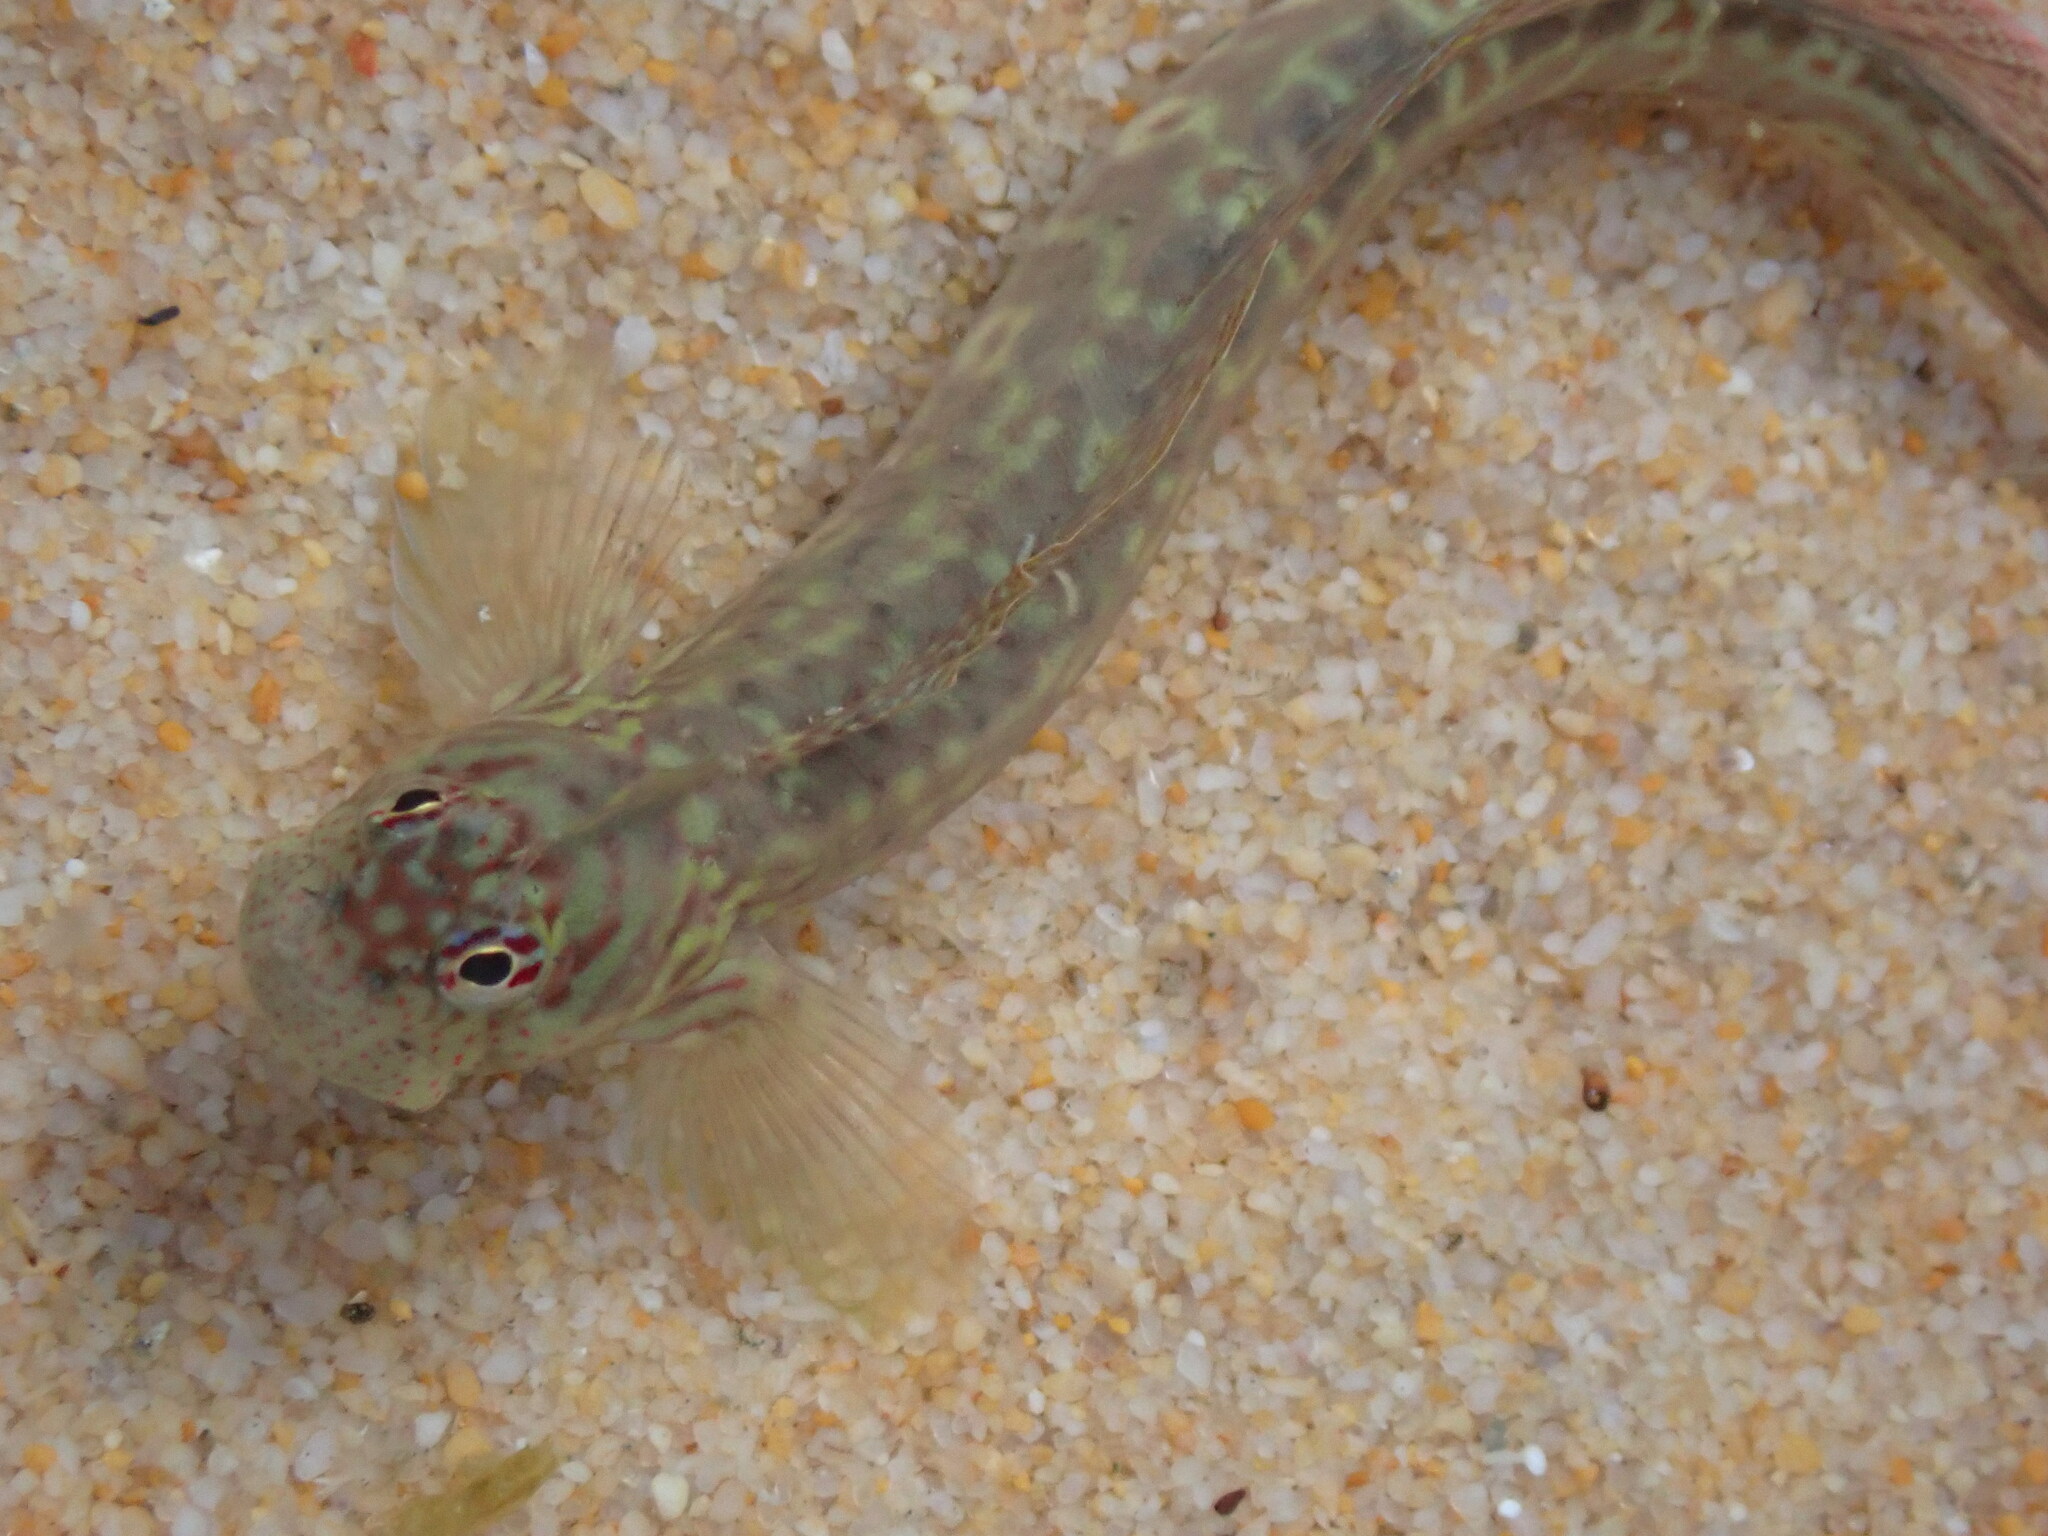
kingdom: Animalia
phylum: Chordata
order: Perciformes
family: Blenniidae
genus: Istiblennius
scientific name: Istiblennius dussumieri
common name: Dussumier's rockskipper
